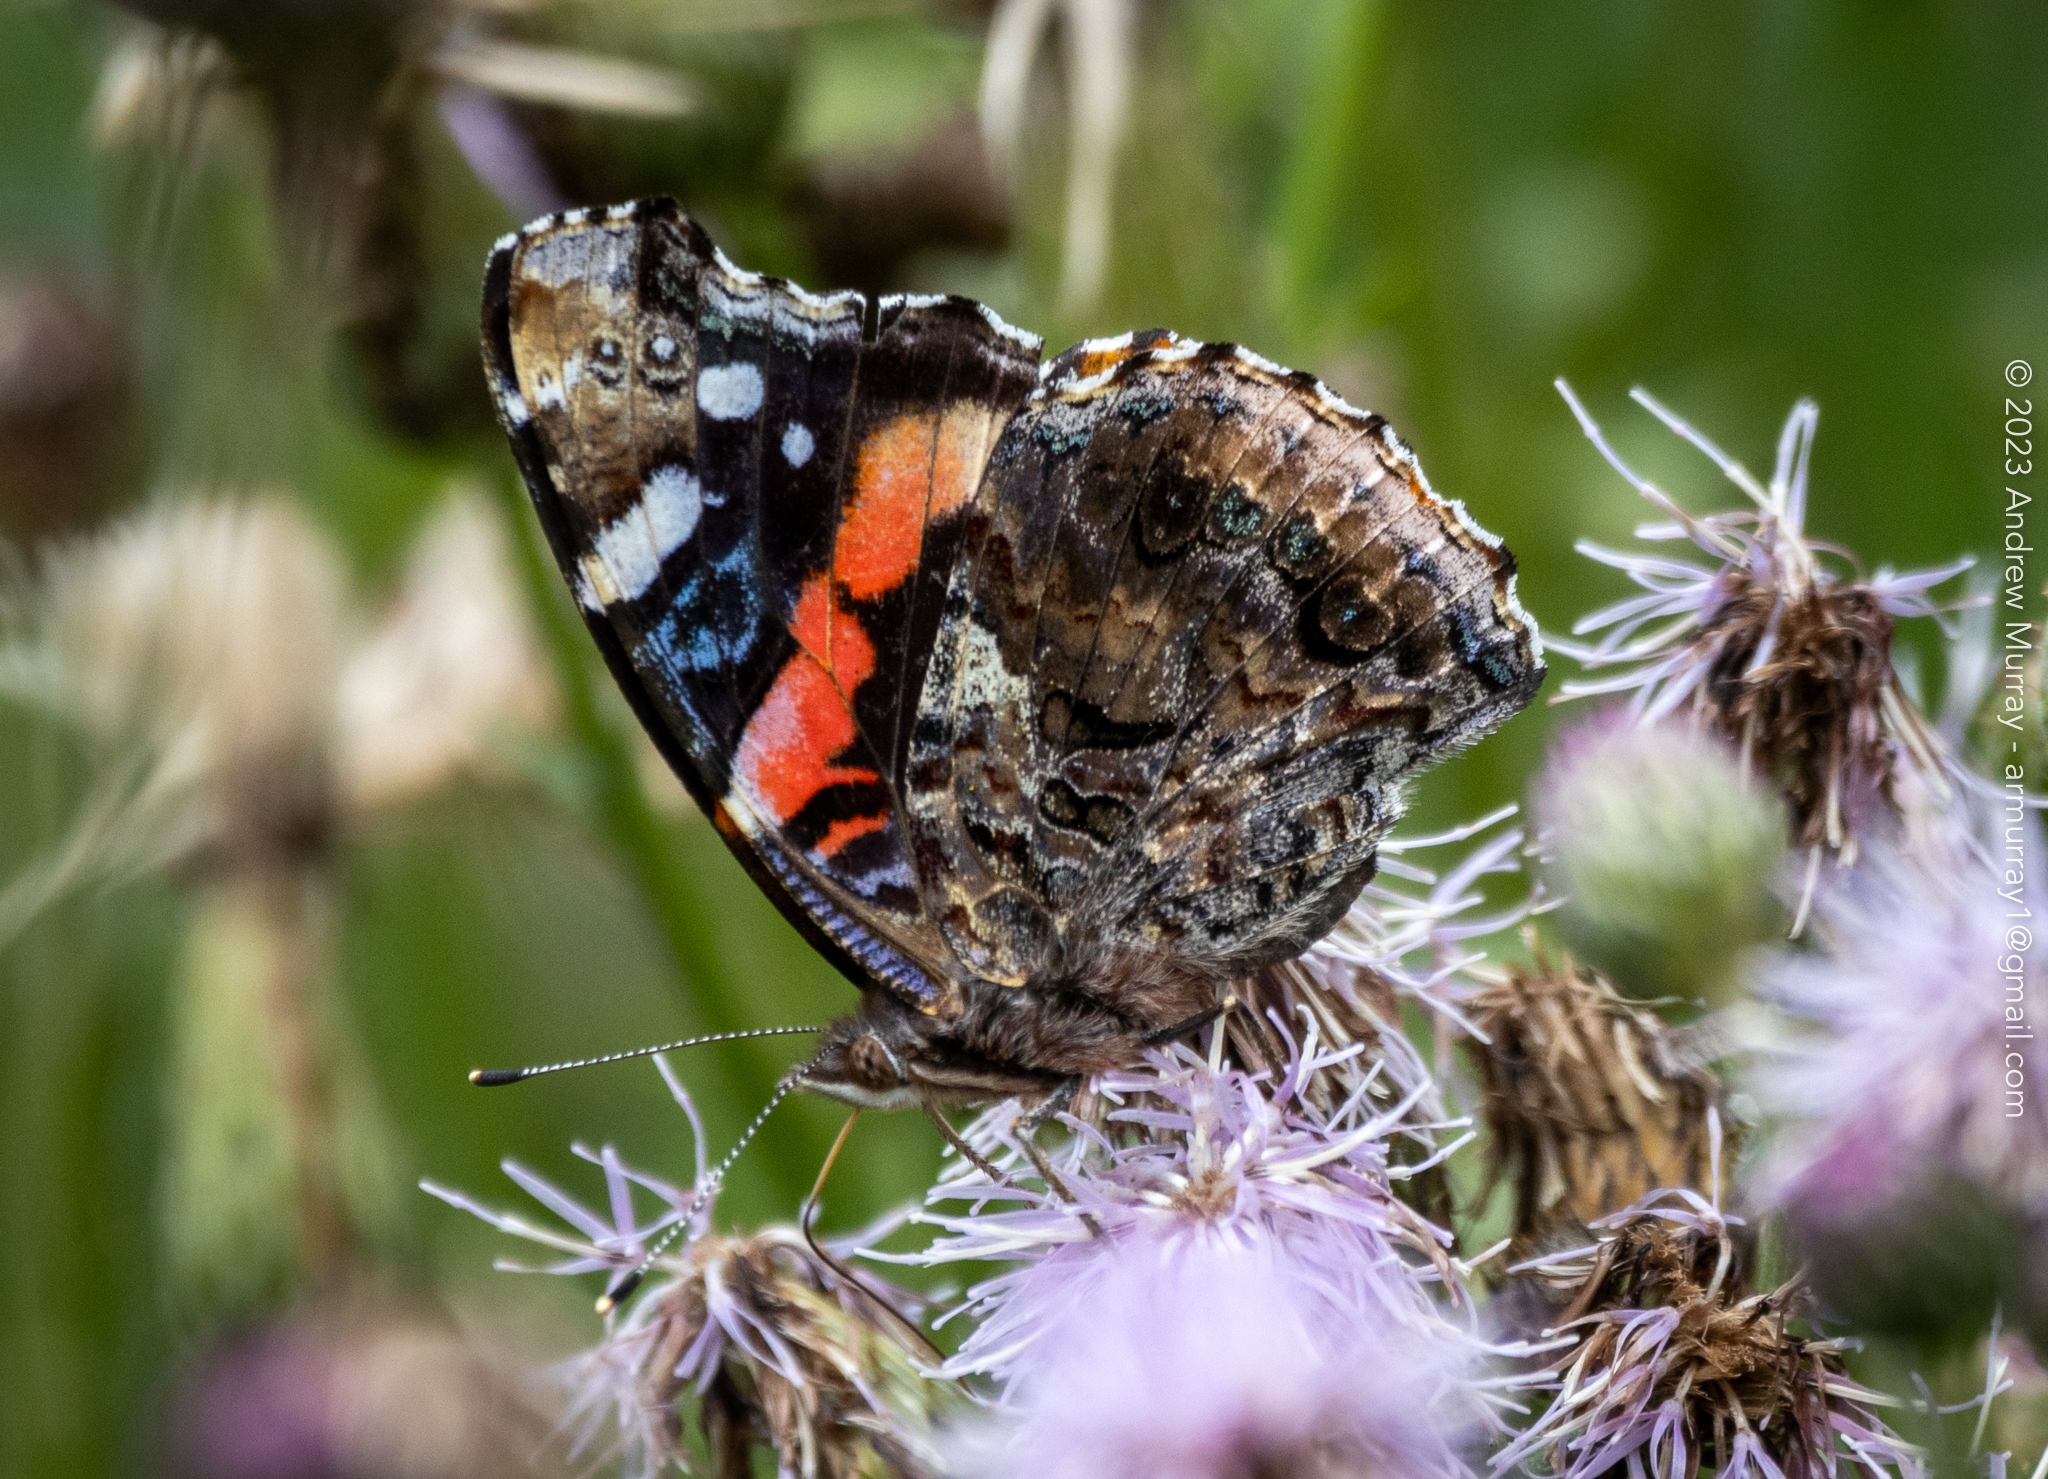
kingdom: Animalia
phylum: Arthropoda
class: Insecta
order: Lepidoptera
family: Nymphalidae
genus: Vanessa
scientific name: Vanessa atalanta
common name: Red admiral
